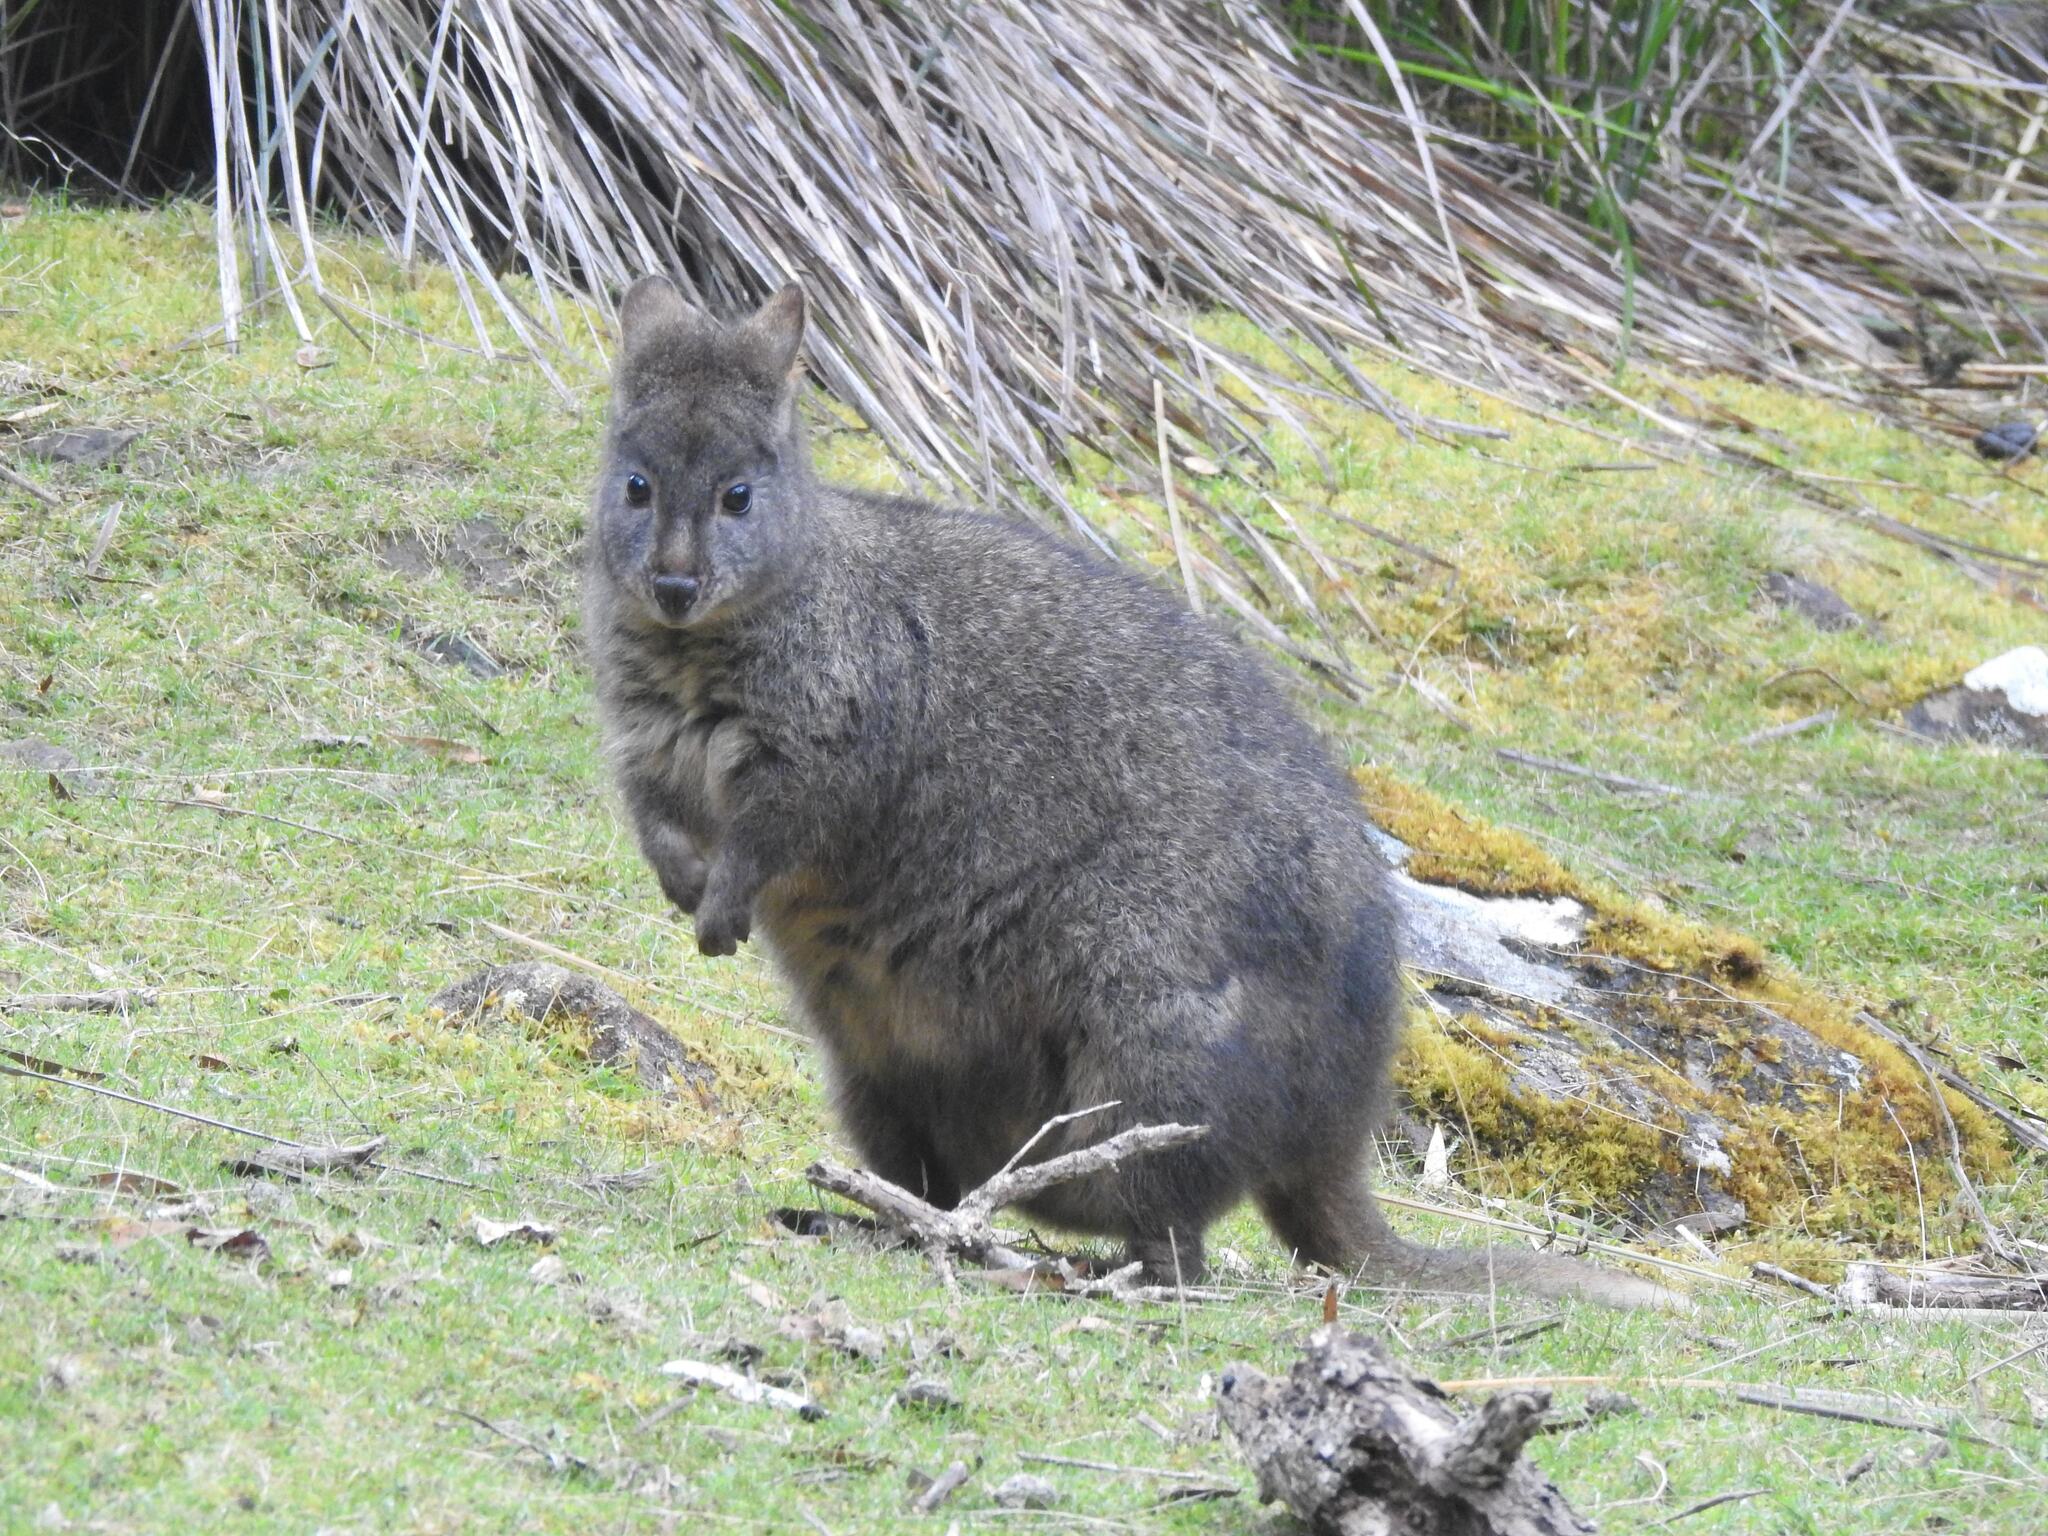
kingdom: Animalia
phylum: Chordata
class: Mammalia
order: Diprotodontia
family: Macropodidae
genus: Thylogale
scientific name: Thylogale billardierii
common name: Tasmanian pademelon
